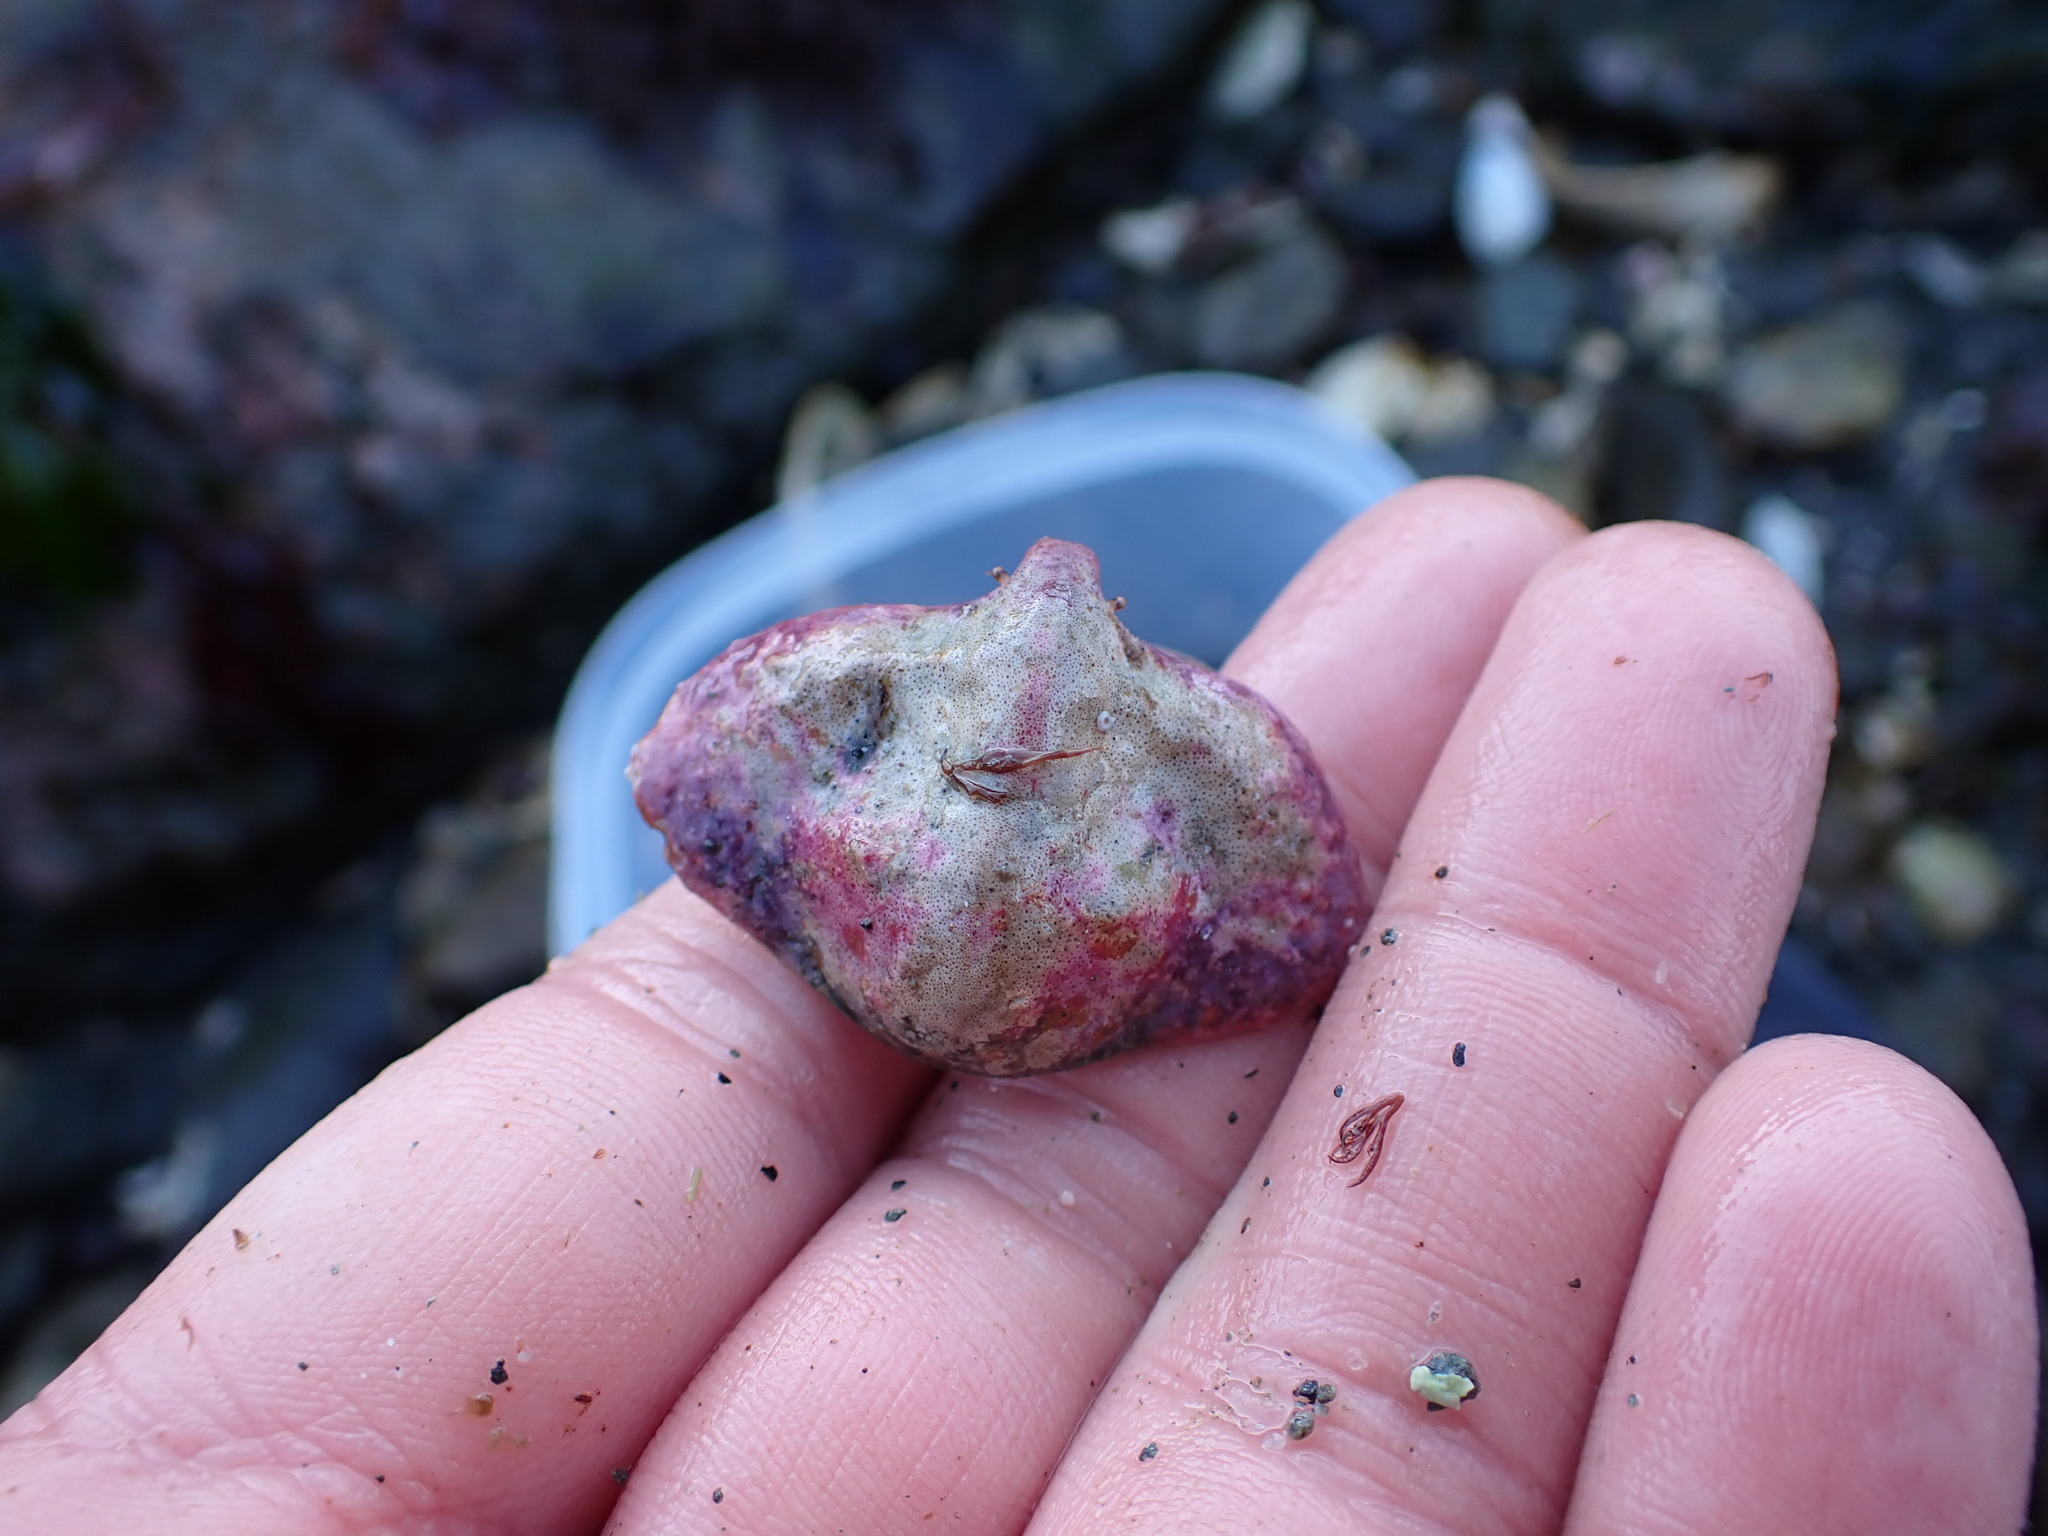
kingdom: Animalia
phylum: Arthropoda
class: Malacostraca
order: Decapoda
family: Lithodidae
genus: Cryptolithodes
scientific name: Cryptolithodes typicus
